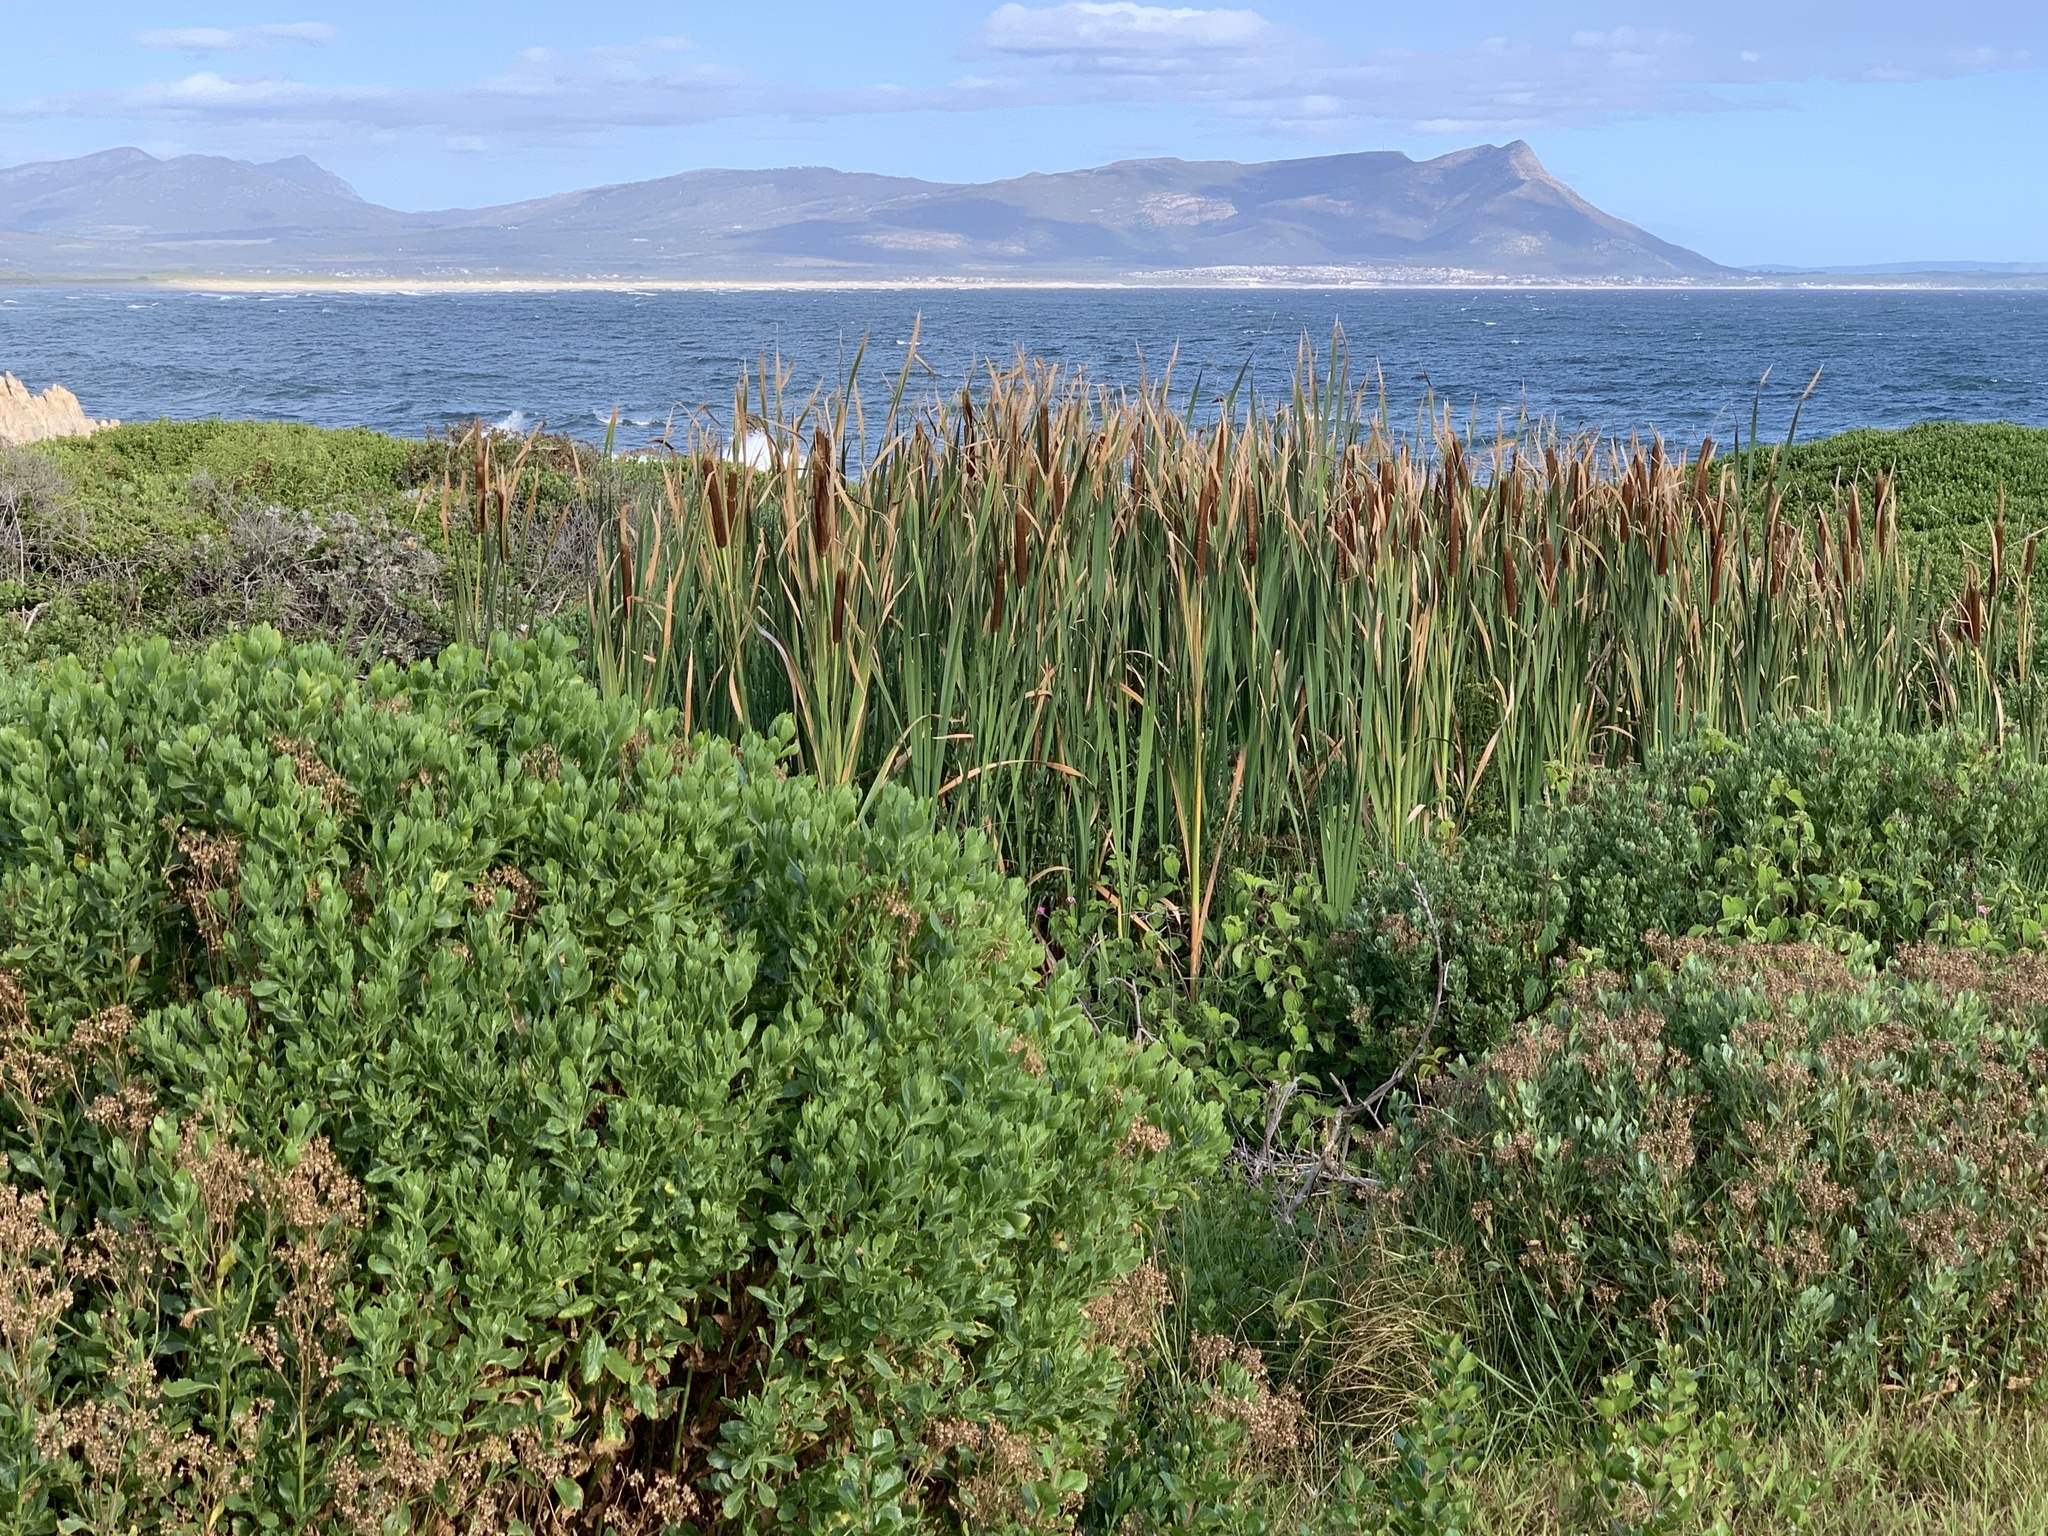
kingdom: Plantae
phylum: Tracheophyta
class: Liliopsida
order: Poales
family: Typhaceae
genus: Typha
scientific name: Typha capensis
